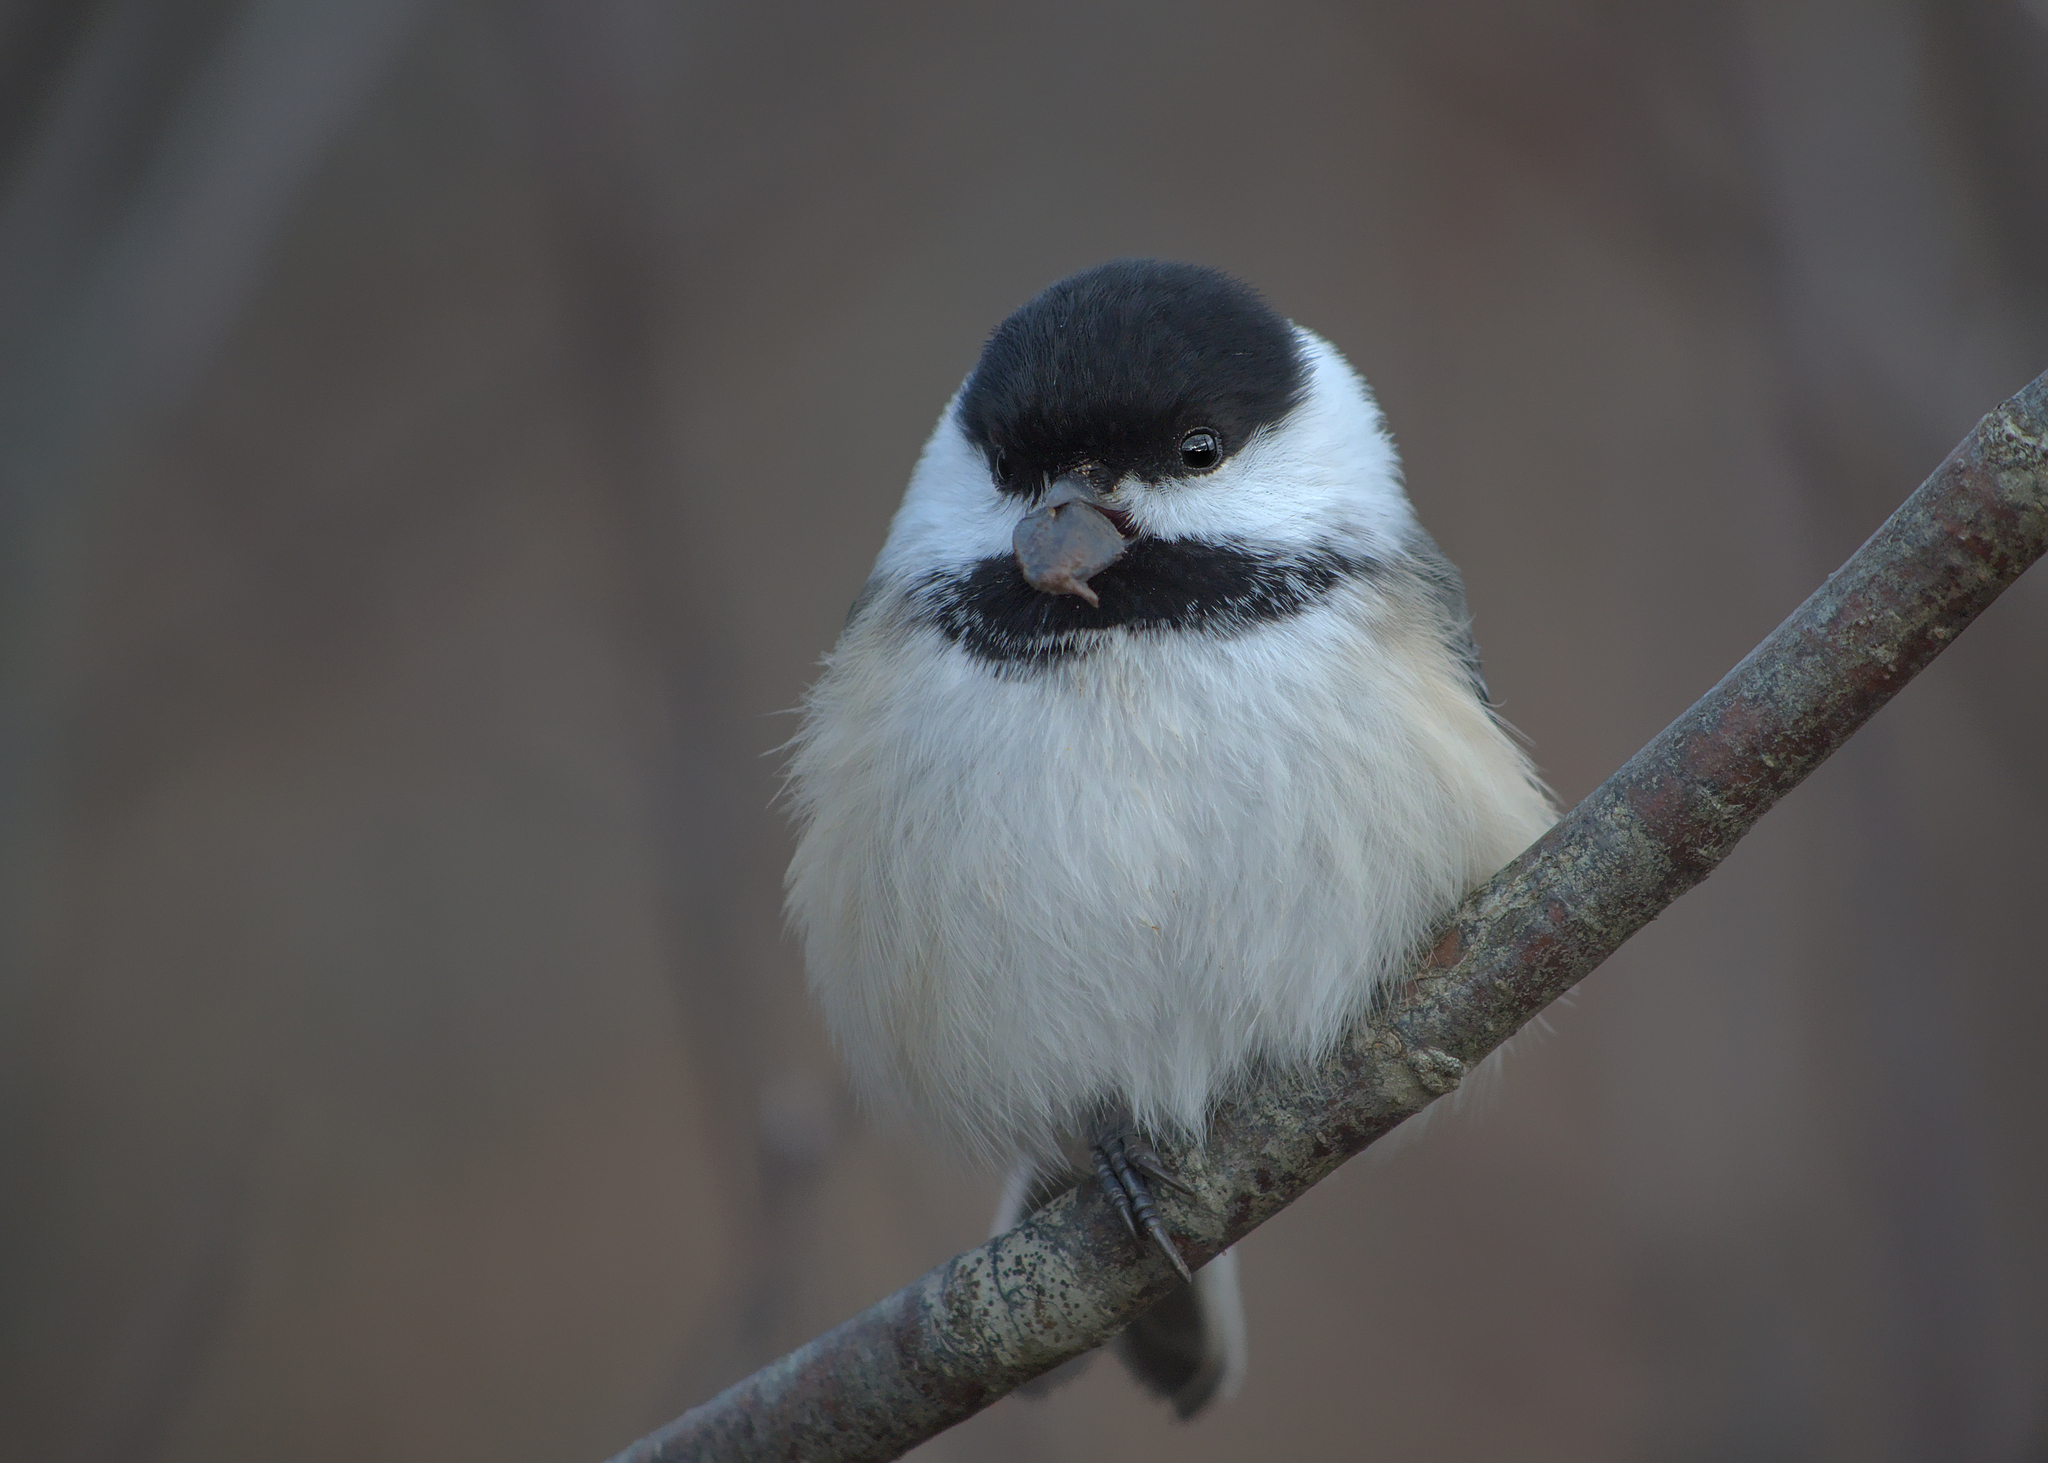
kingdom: Animalia
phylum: Chordata
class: Aves
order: Passeriformes
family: Paridae
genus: Poecile
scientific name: Poecile atricapillus
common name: Black-capped chickadee
